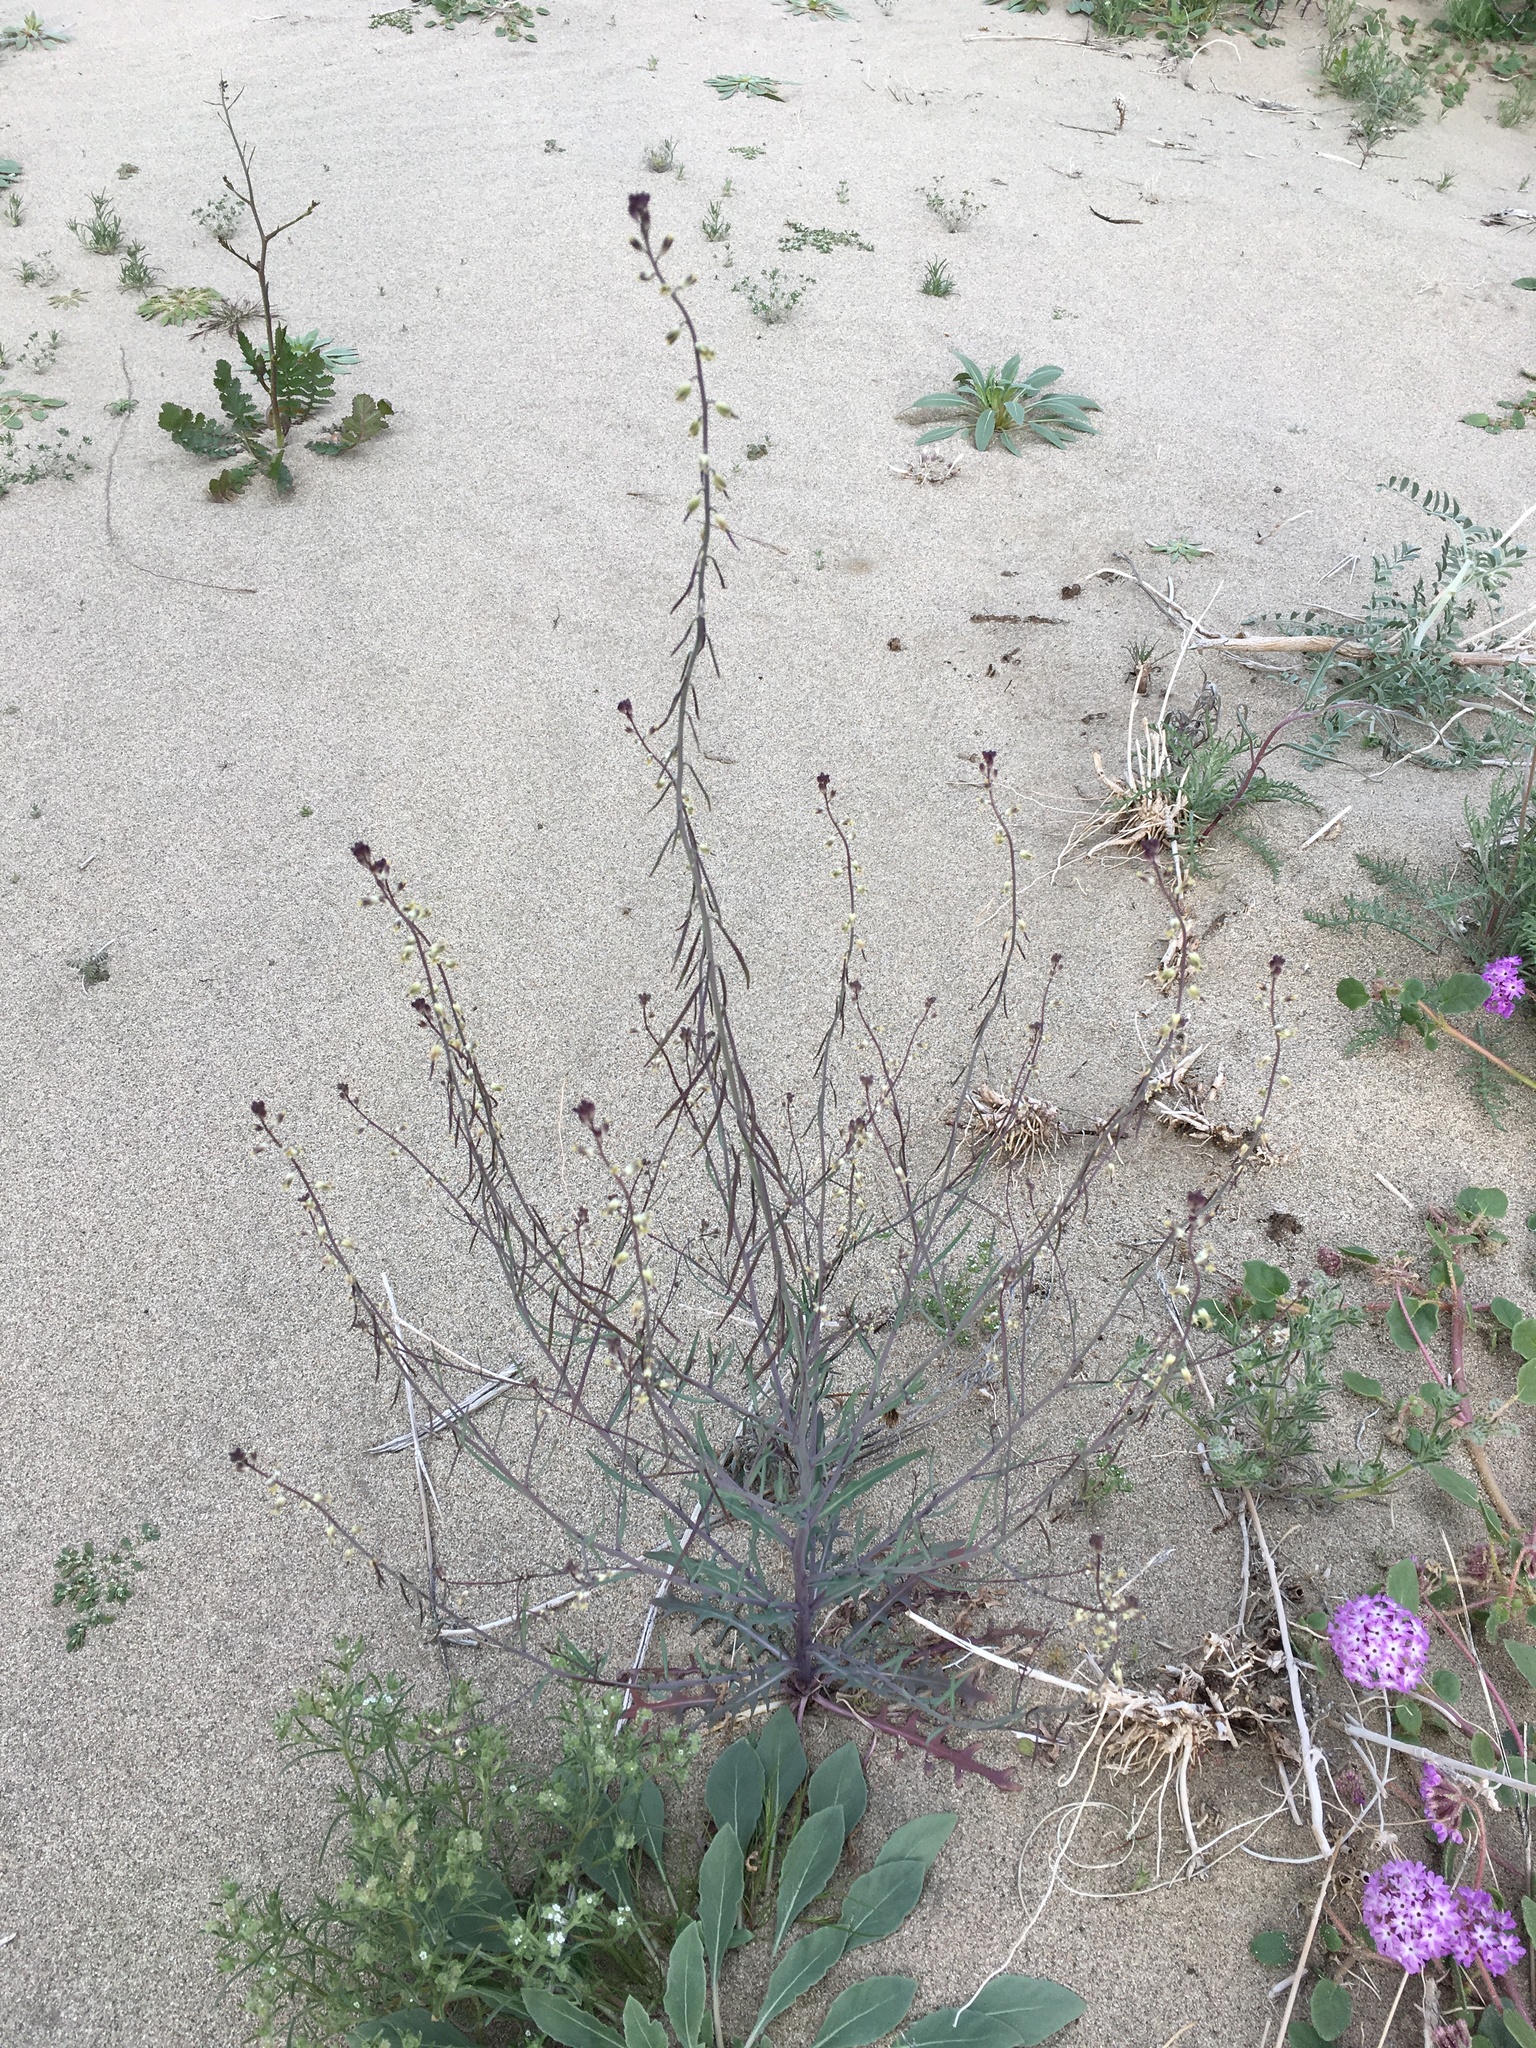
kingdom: Plantae
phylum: Tracheophyta
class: Magnoliopsida
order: Brassicales
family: Brassicaceae
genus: Streptanthus
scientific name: Streptanthus longirostris
